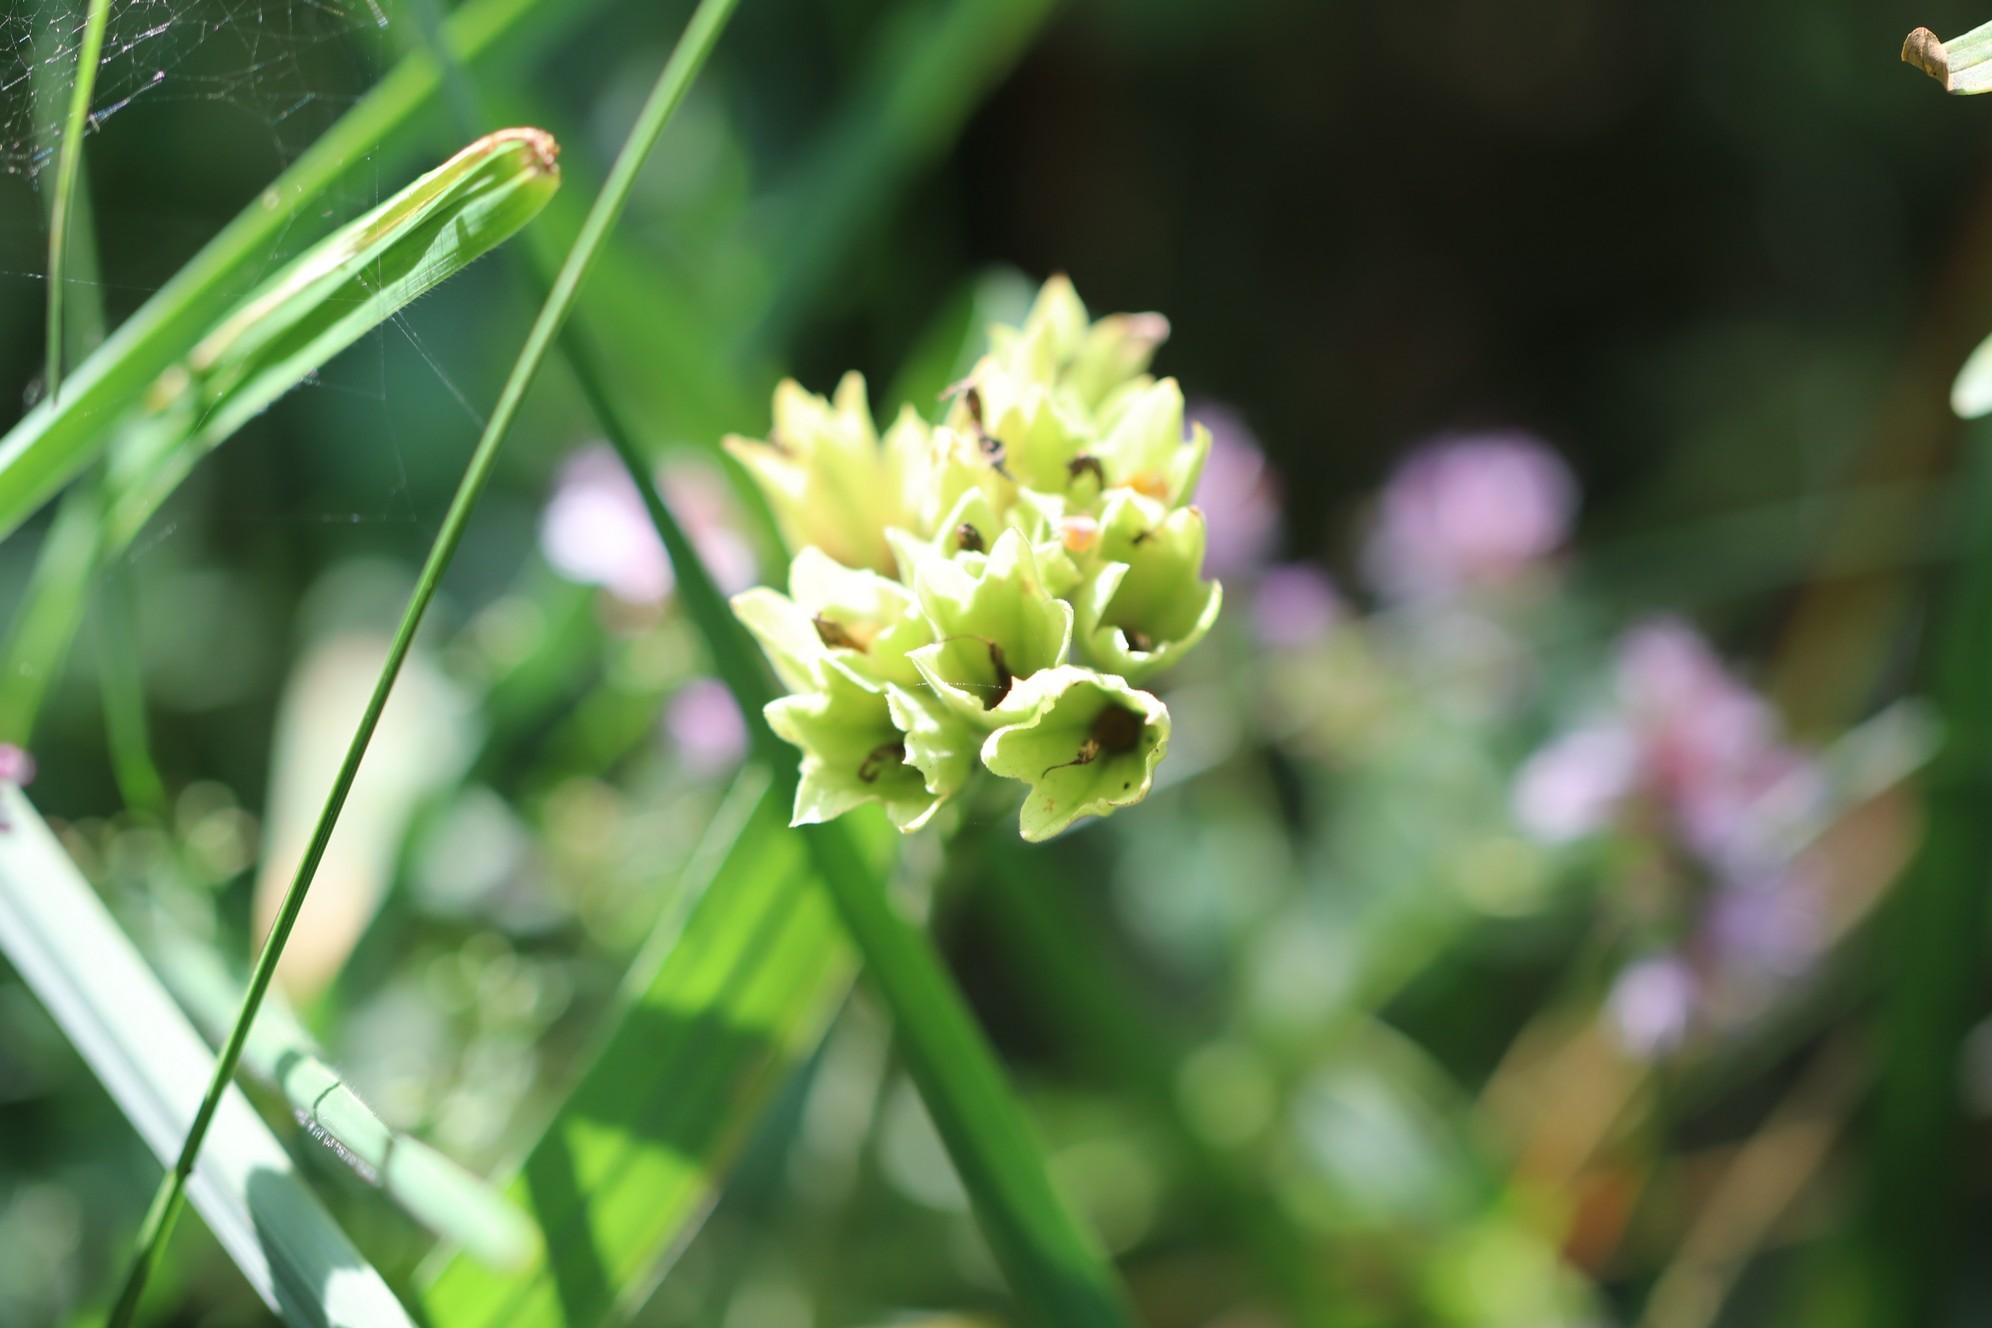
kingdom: Plantae
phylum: Tracheophyta
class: Magnoliopsida
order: Ericales
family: Primulaceae
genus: Primula
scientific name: Primula veris
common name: Cowslip
